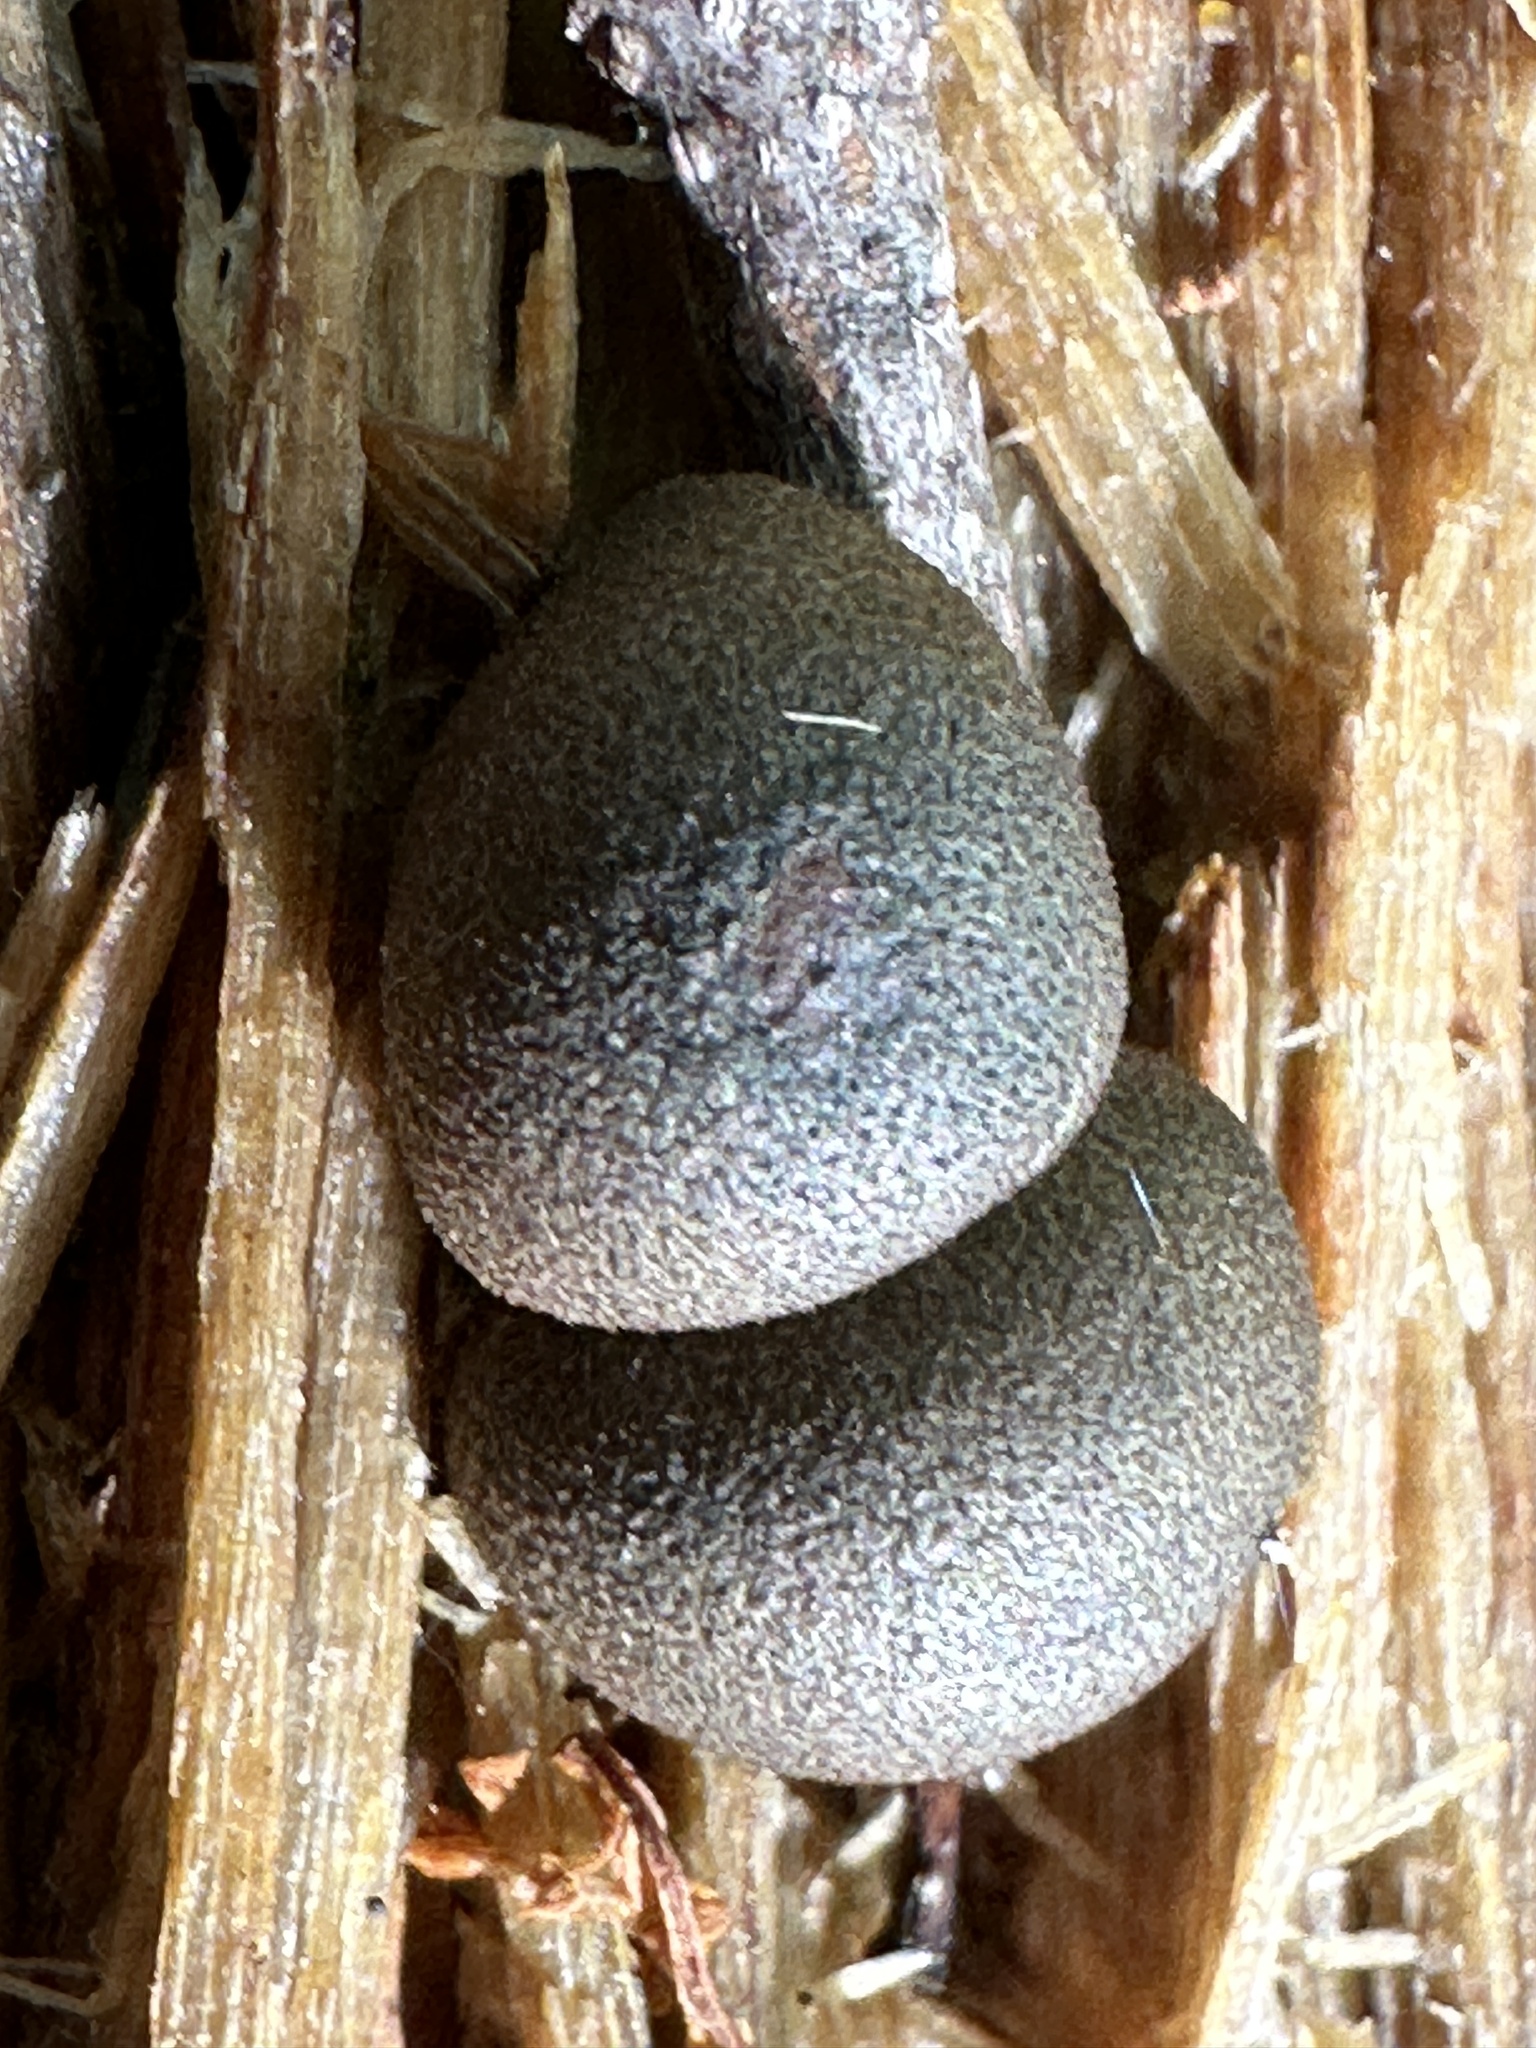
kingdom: Protozoa
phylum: Mycetozoa
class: Myxomycetes
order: Cribrariales
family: Tubiferaceae
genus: Lycogala
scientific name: Lycogala epidendrum
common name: Wolf's milk
